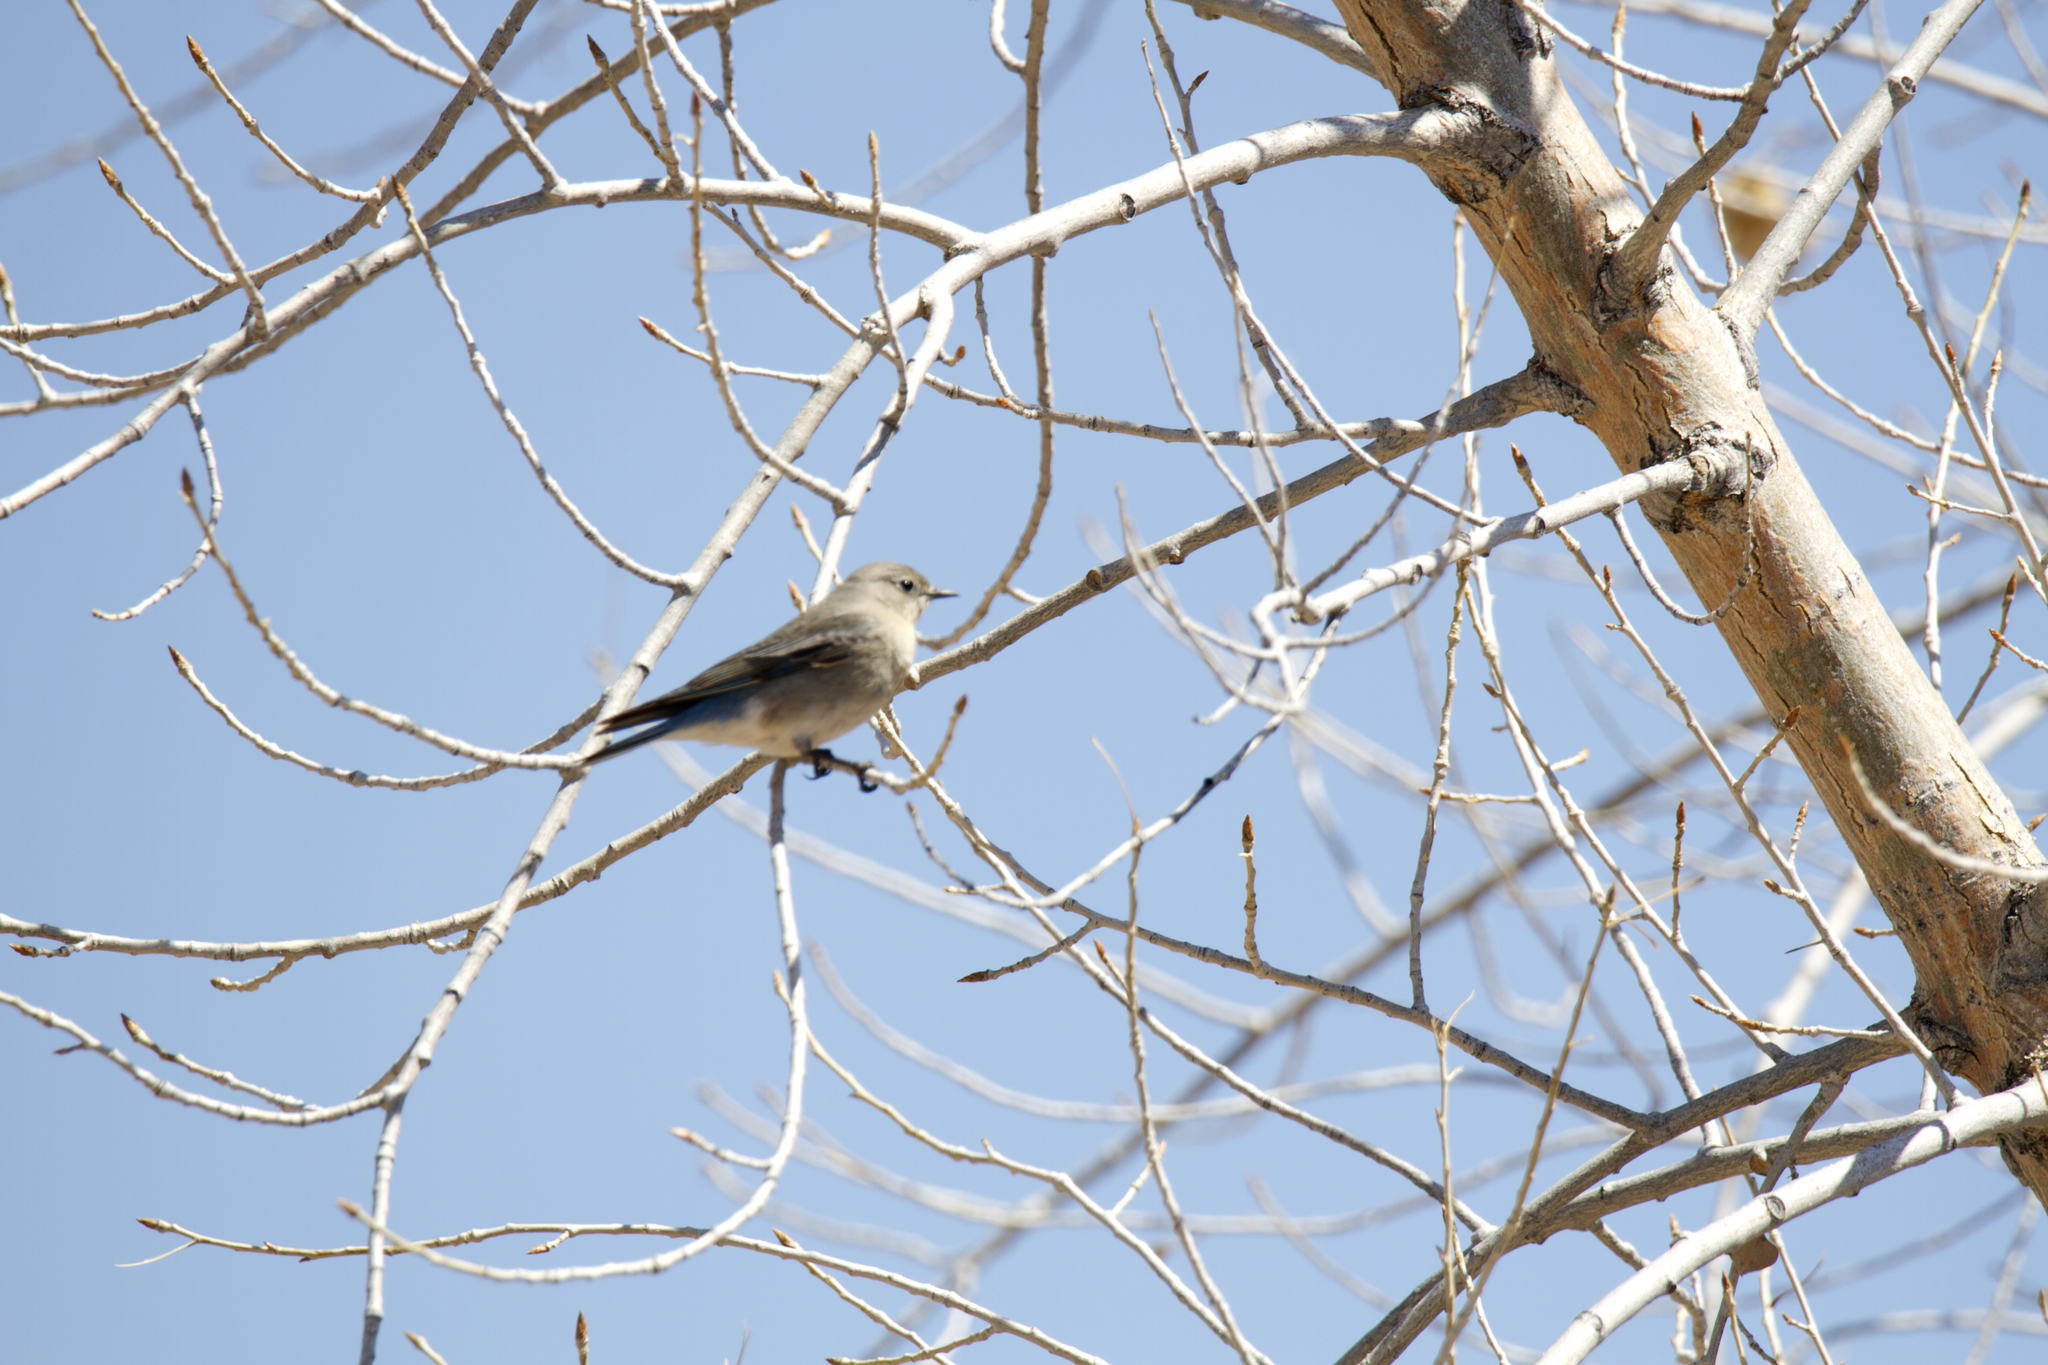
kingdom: Animalia
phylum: Chordata
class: Aves
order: Passeriformes
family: Turdidae
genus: Sialia
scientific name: Sialia currucoides
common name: Mountain bluebird
